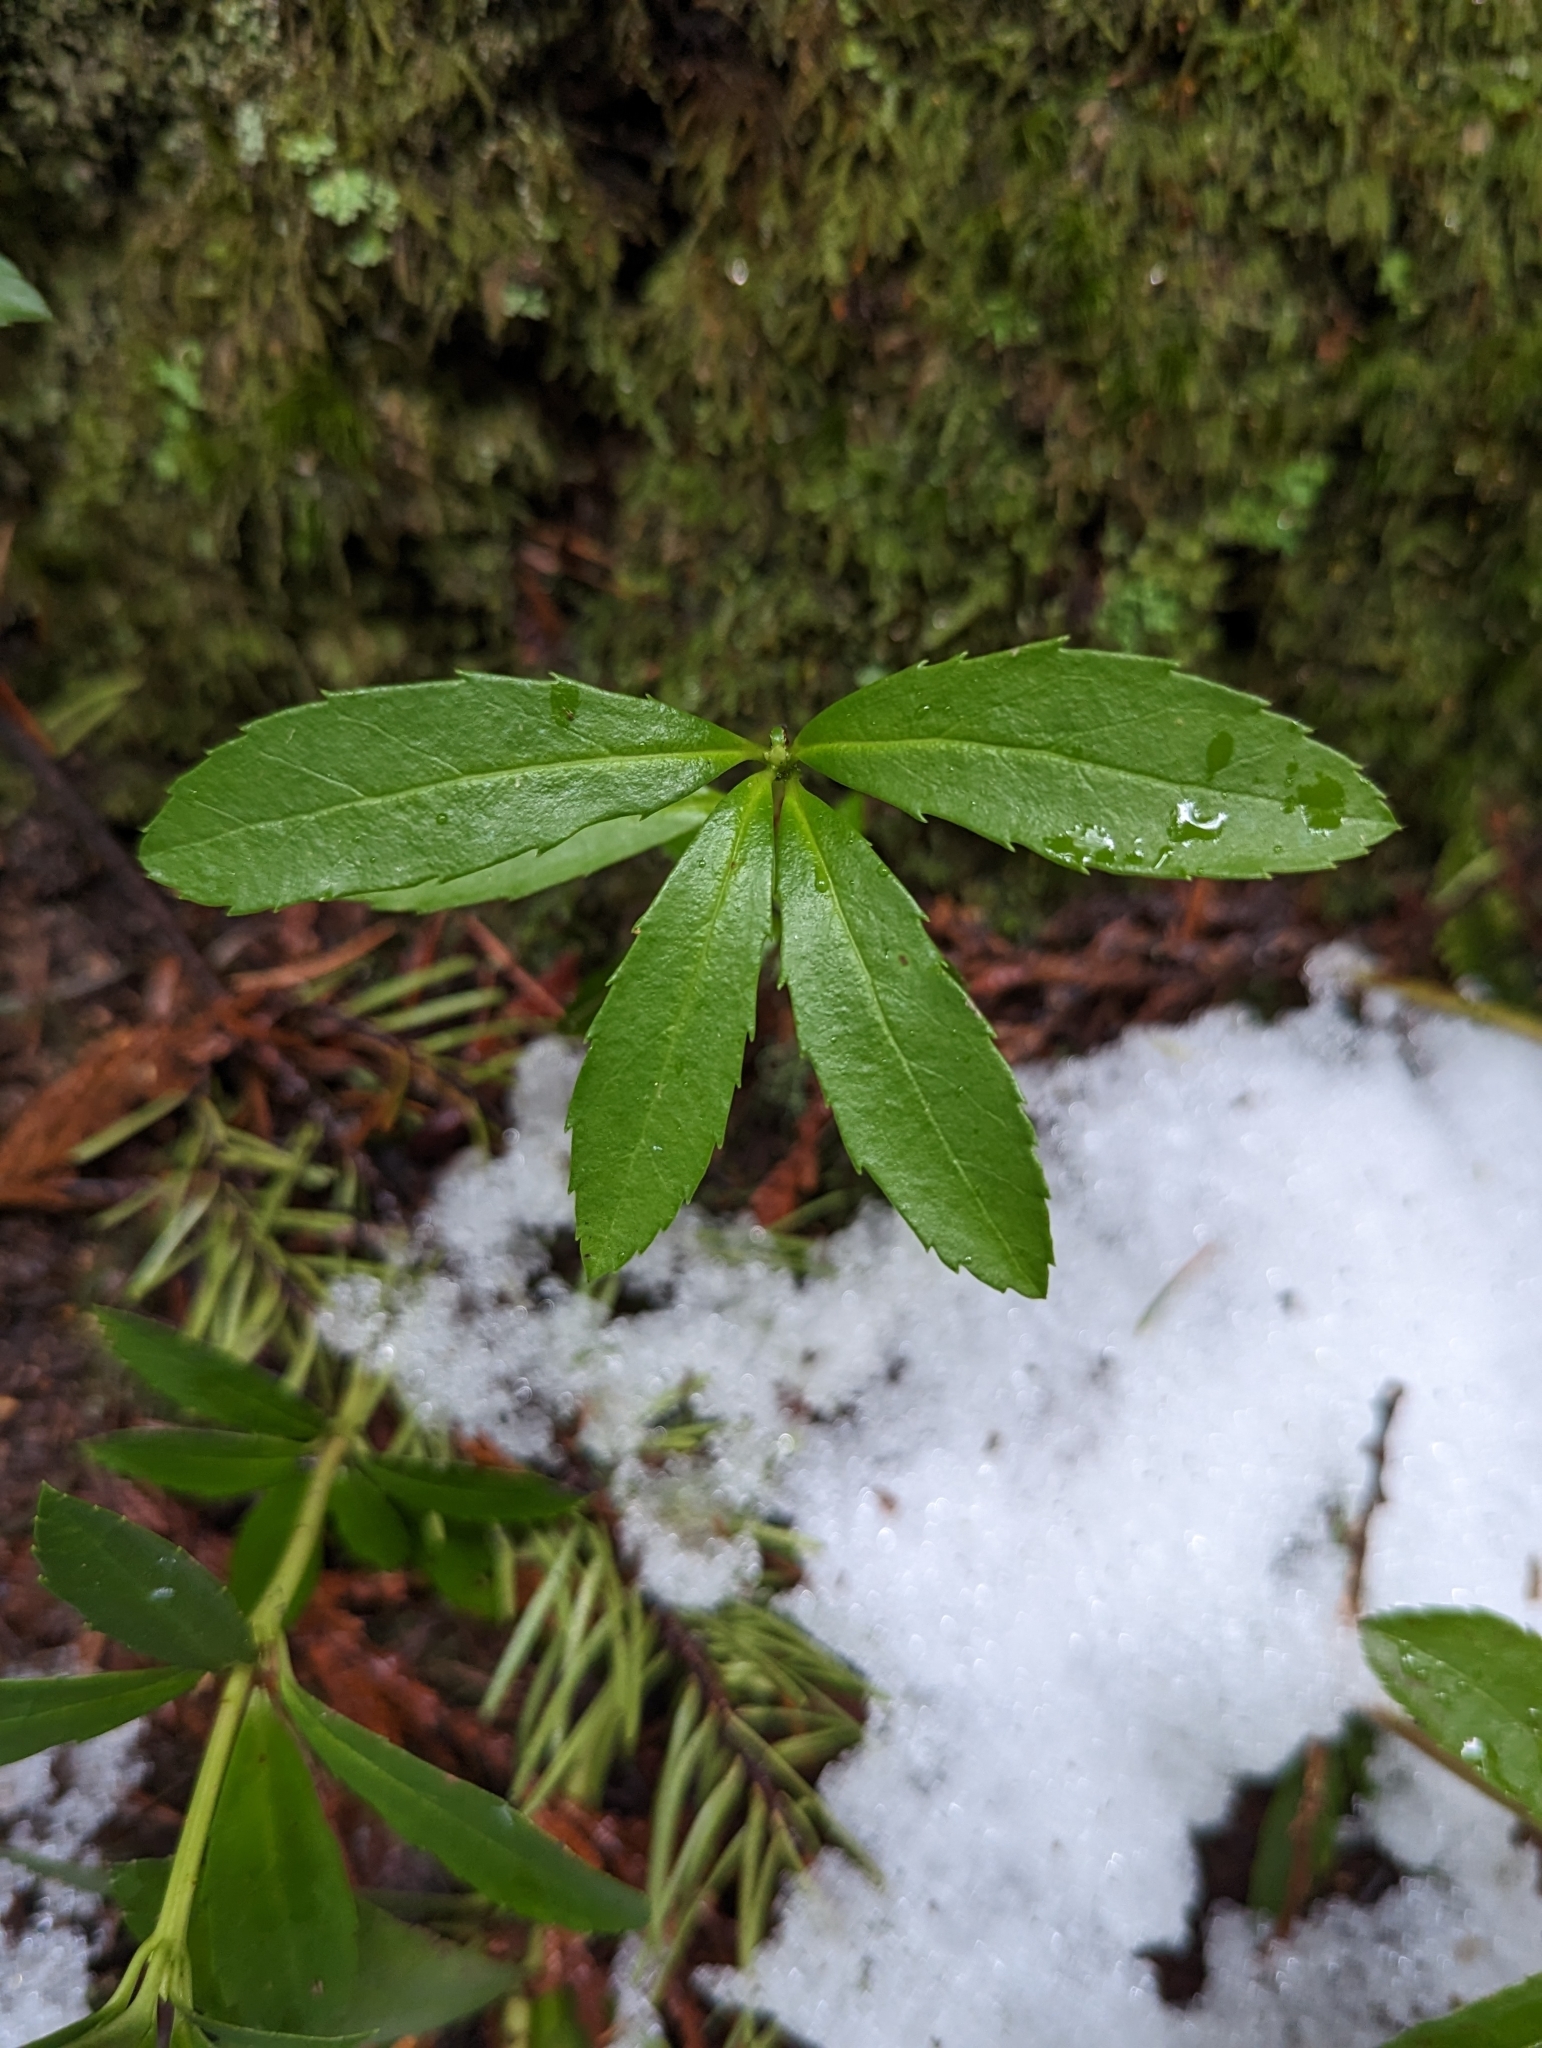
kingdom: Plantae
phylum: Tracheophyta
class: Magnoliopsida
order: Ericales
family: Ericaceae
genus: Chimaphila
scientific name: Chimaphila umbellata
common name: Pipsissewa
